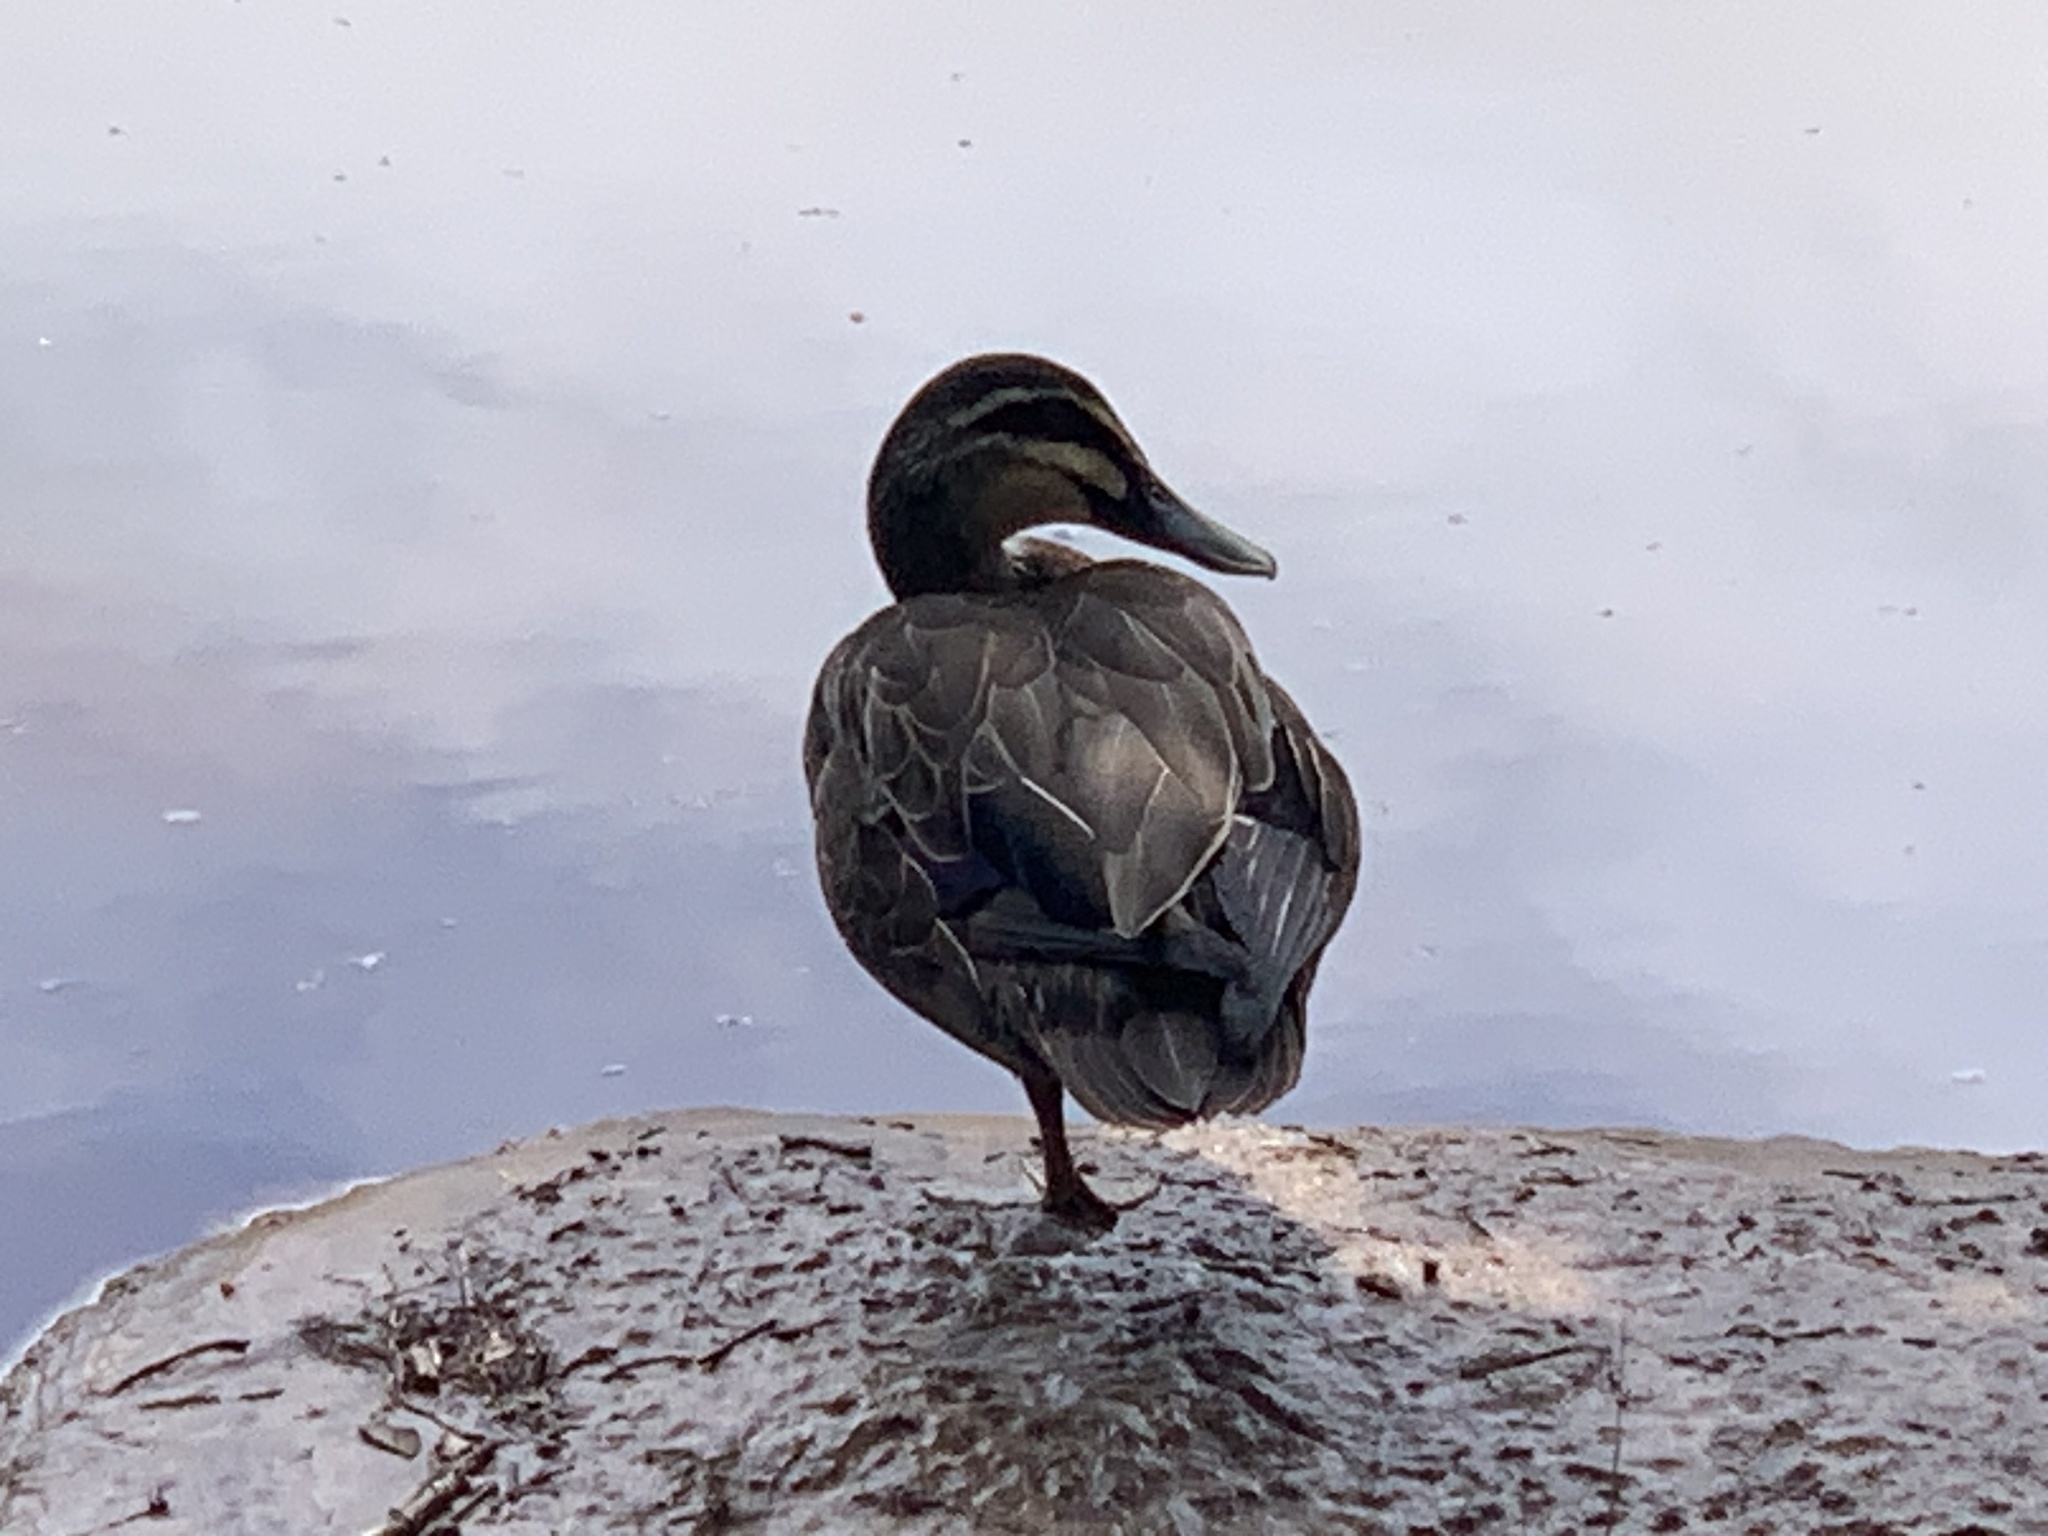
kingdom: Animalia
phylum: Chordata
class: Aves
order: Anseriformes
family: Anatidae
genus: Anas
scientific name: Anas superciliosa
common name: Pacific black duck
